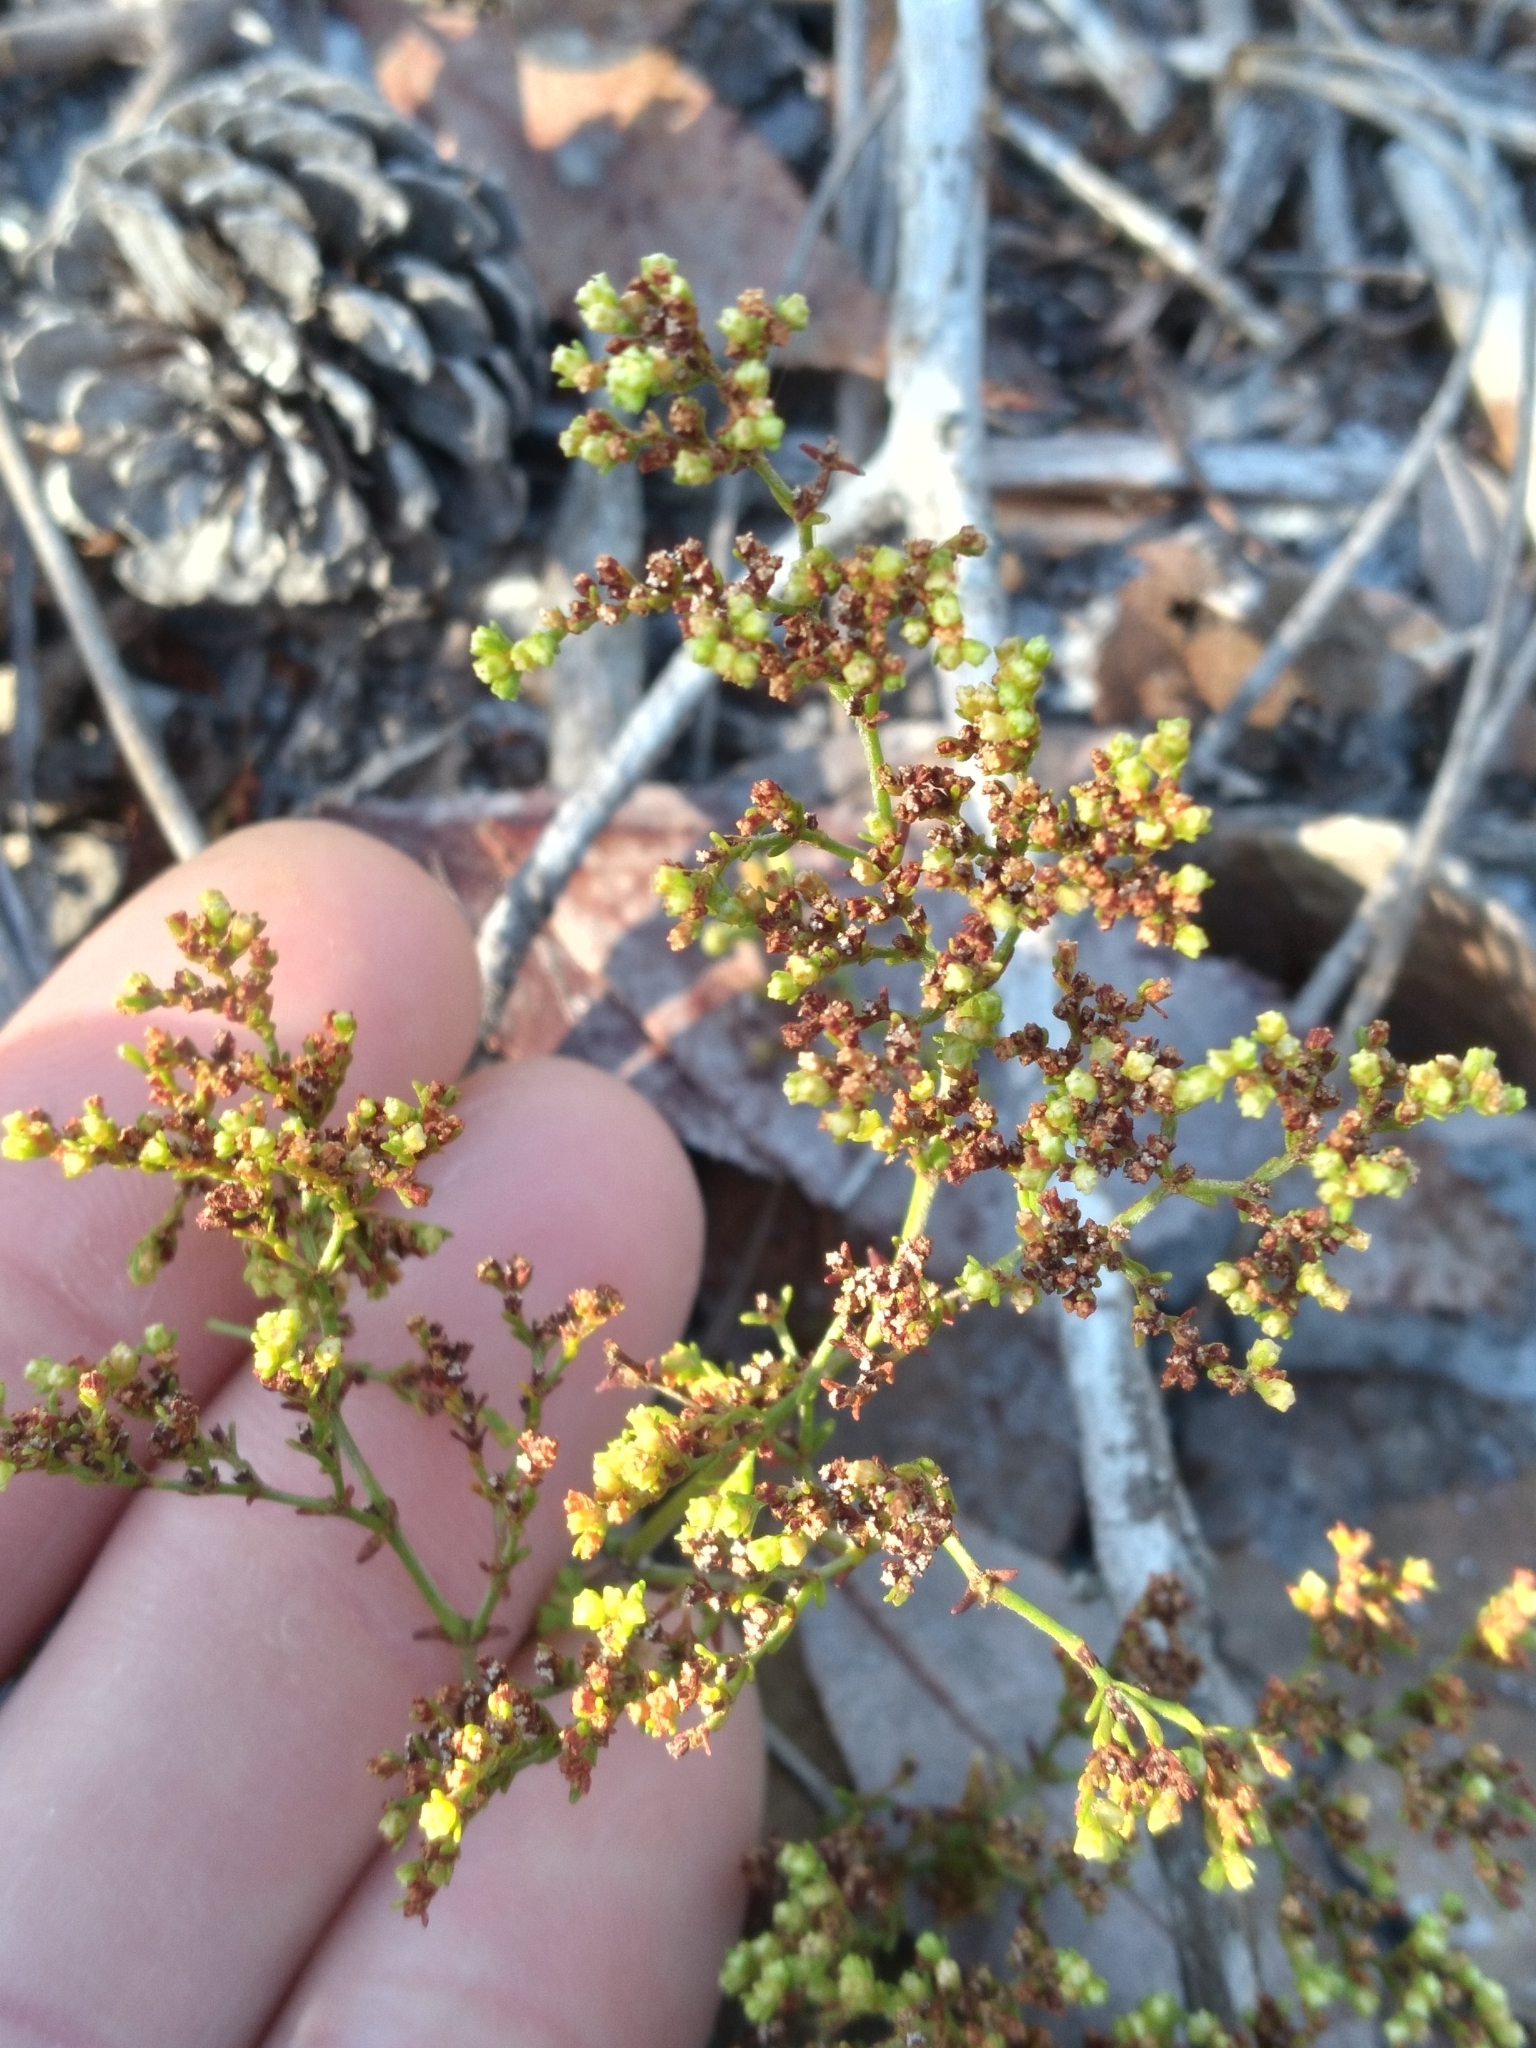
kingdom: Plantae
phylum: Tracheophyta
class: Magnoliopsida
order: Caryophyllales
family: Caryophyllaceae
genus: Paronychia
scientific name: Paronychia chartacea
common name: Paper nailwort
